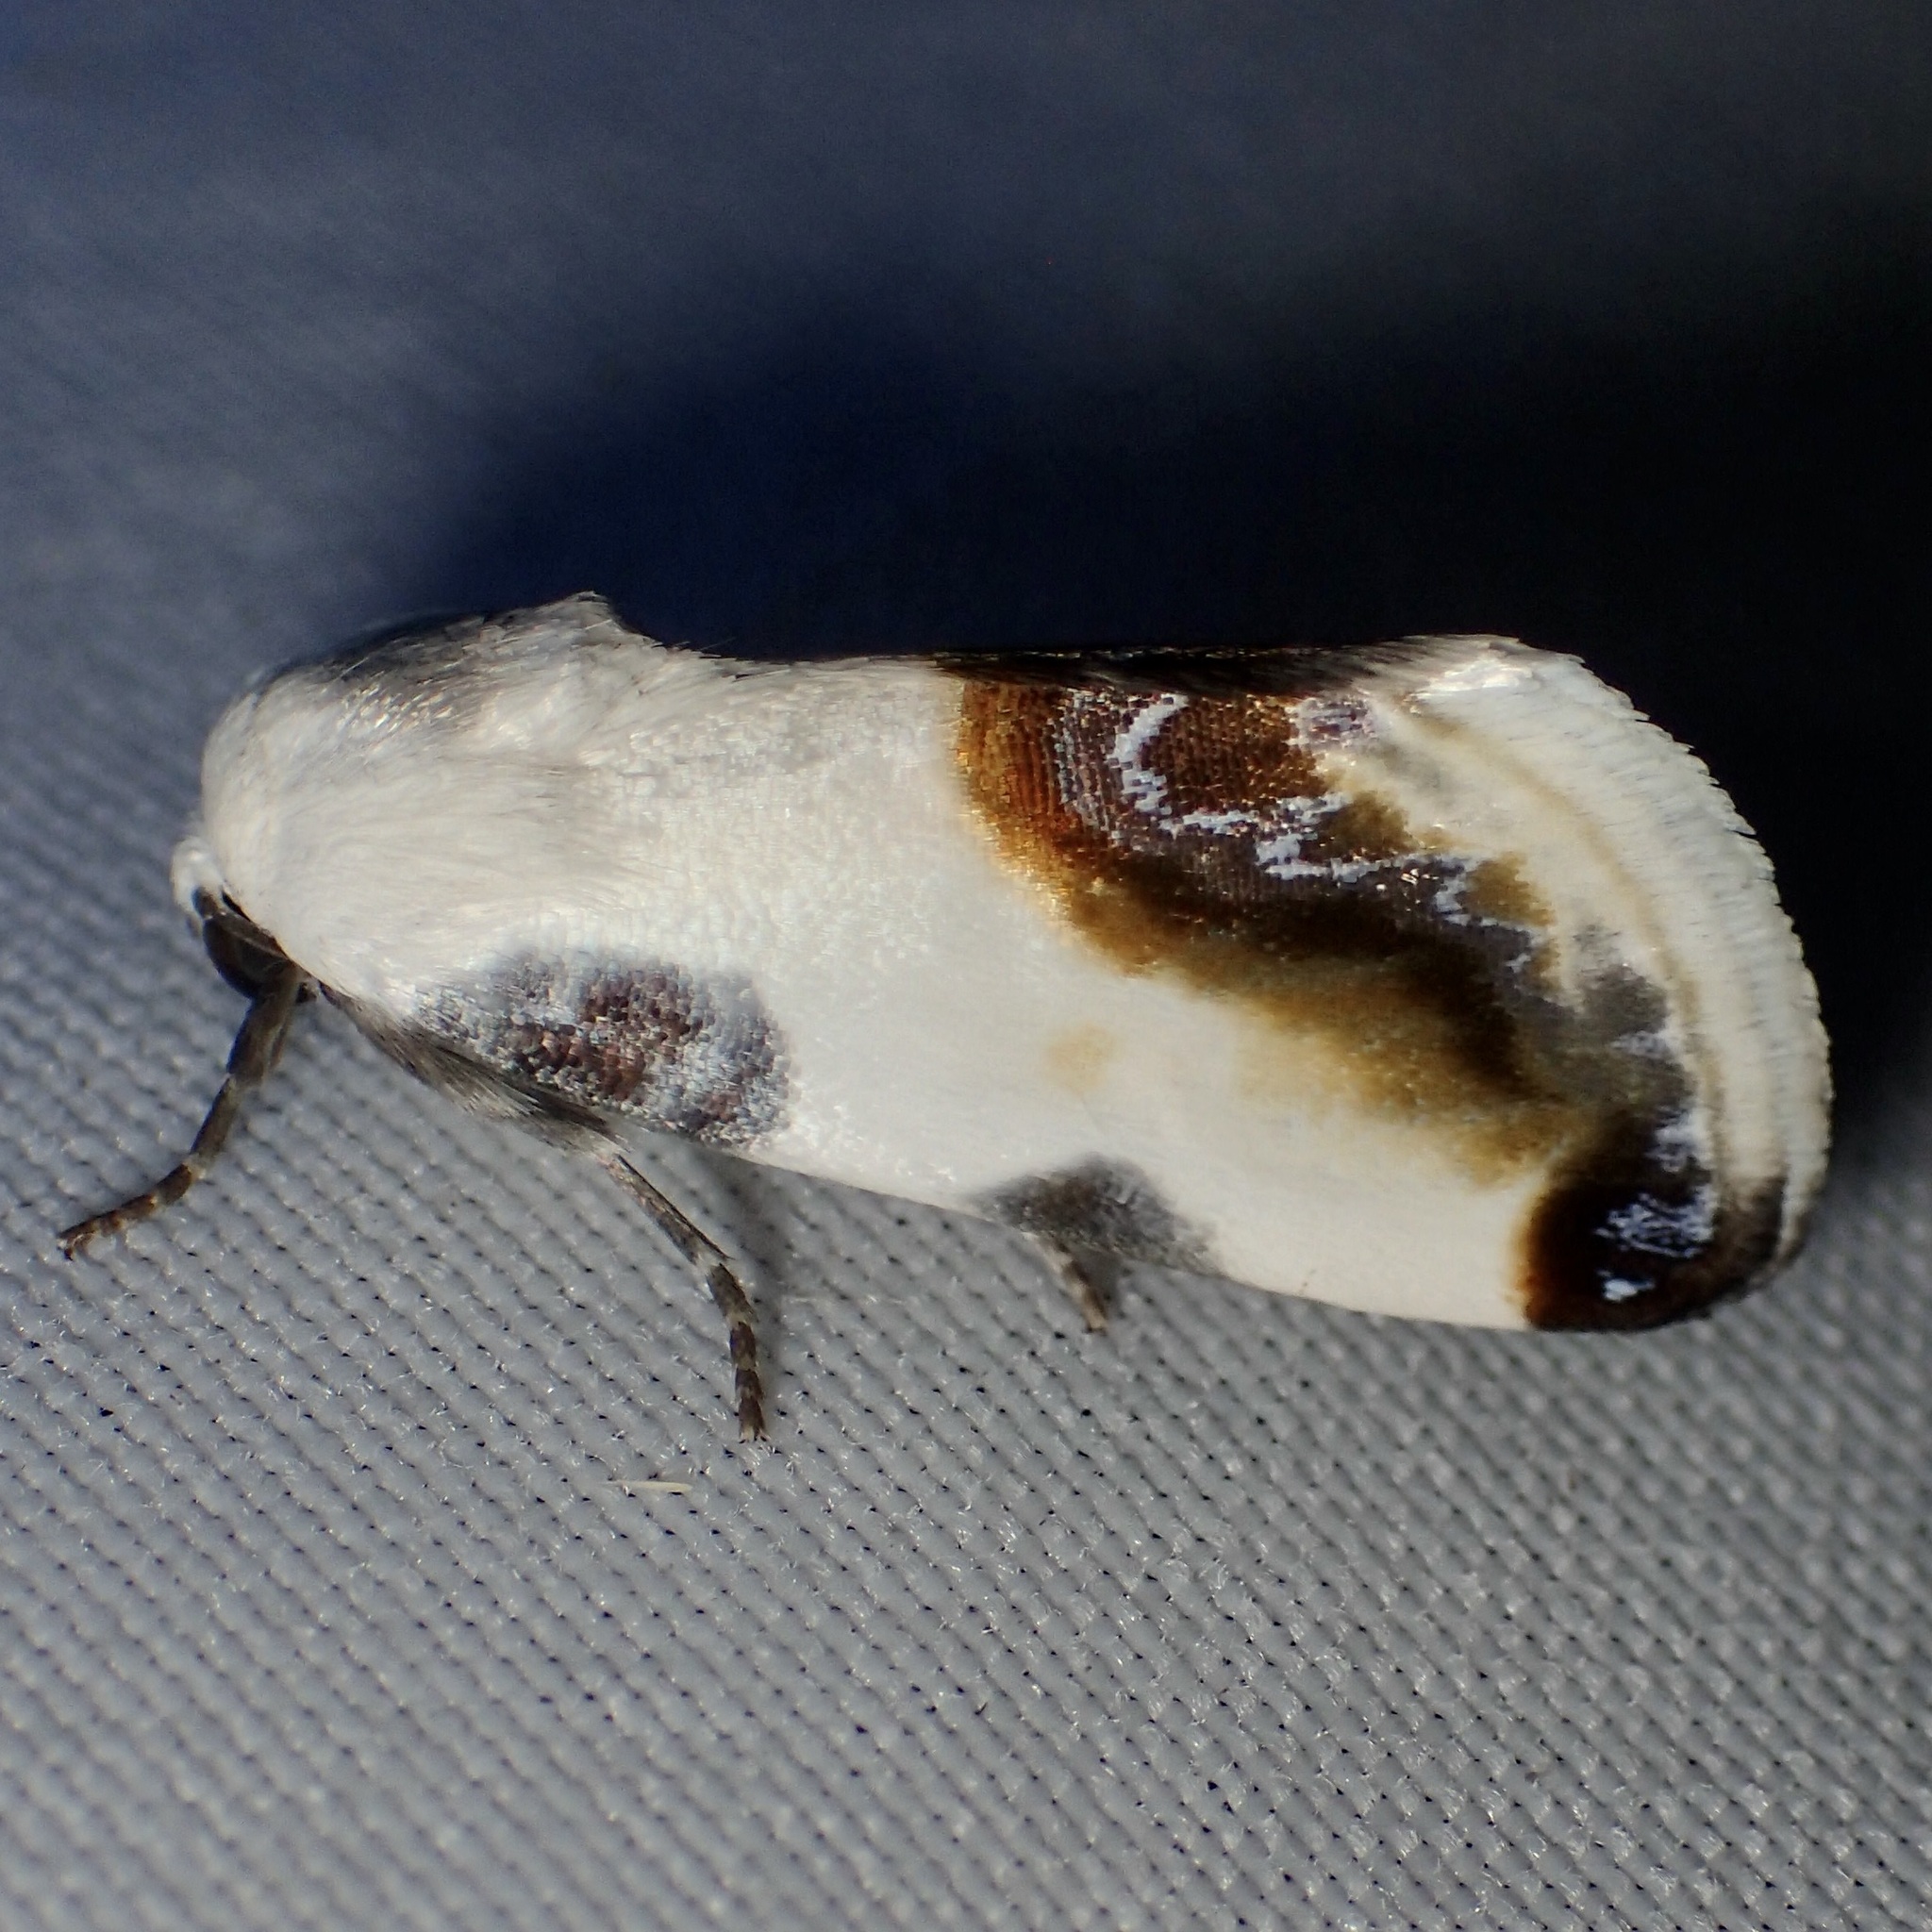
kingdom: Animalia
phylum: Arthropoda
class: Insecta
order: Lepidoptera
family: Noctuidae
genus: Acontia
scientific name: Acontia chea
